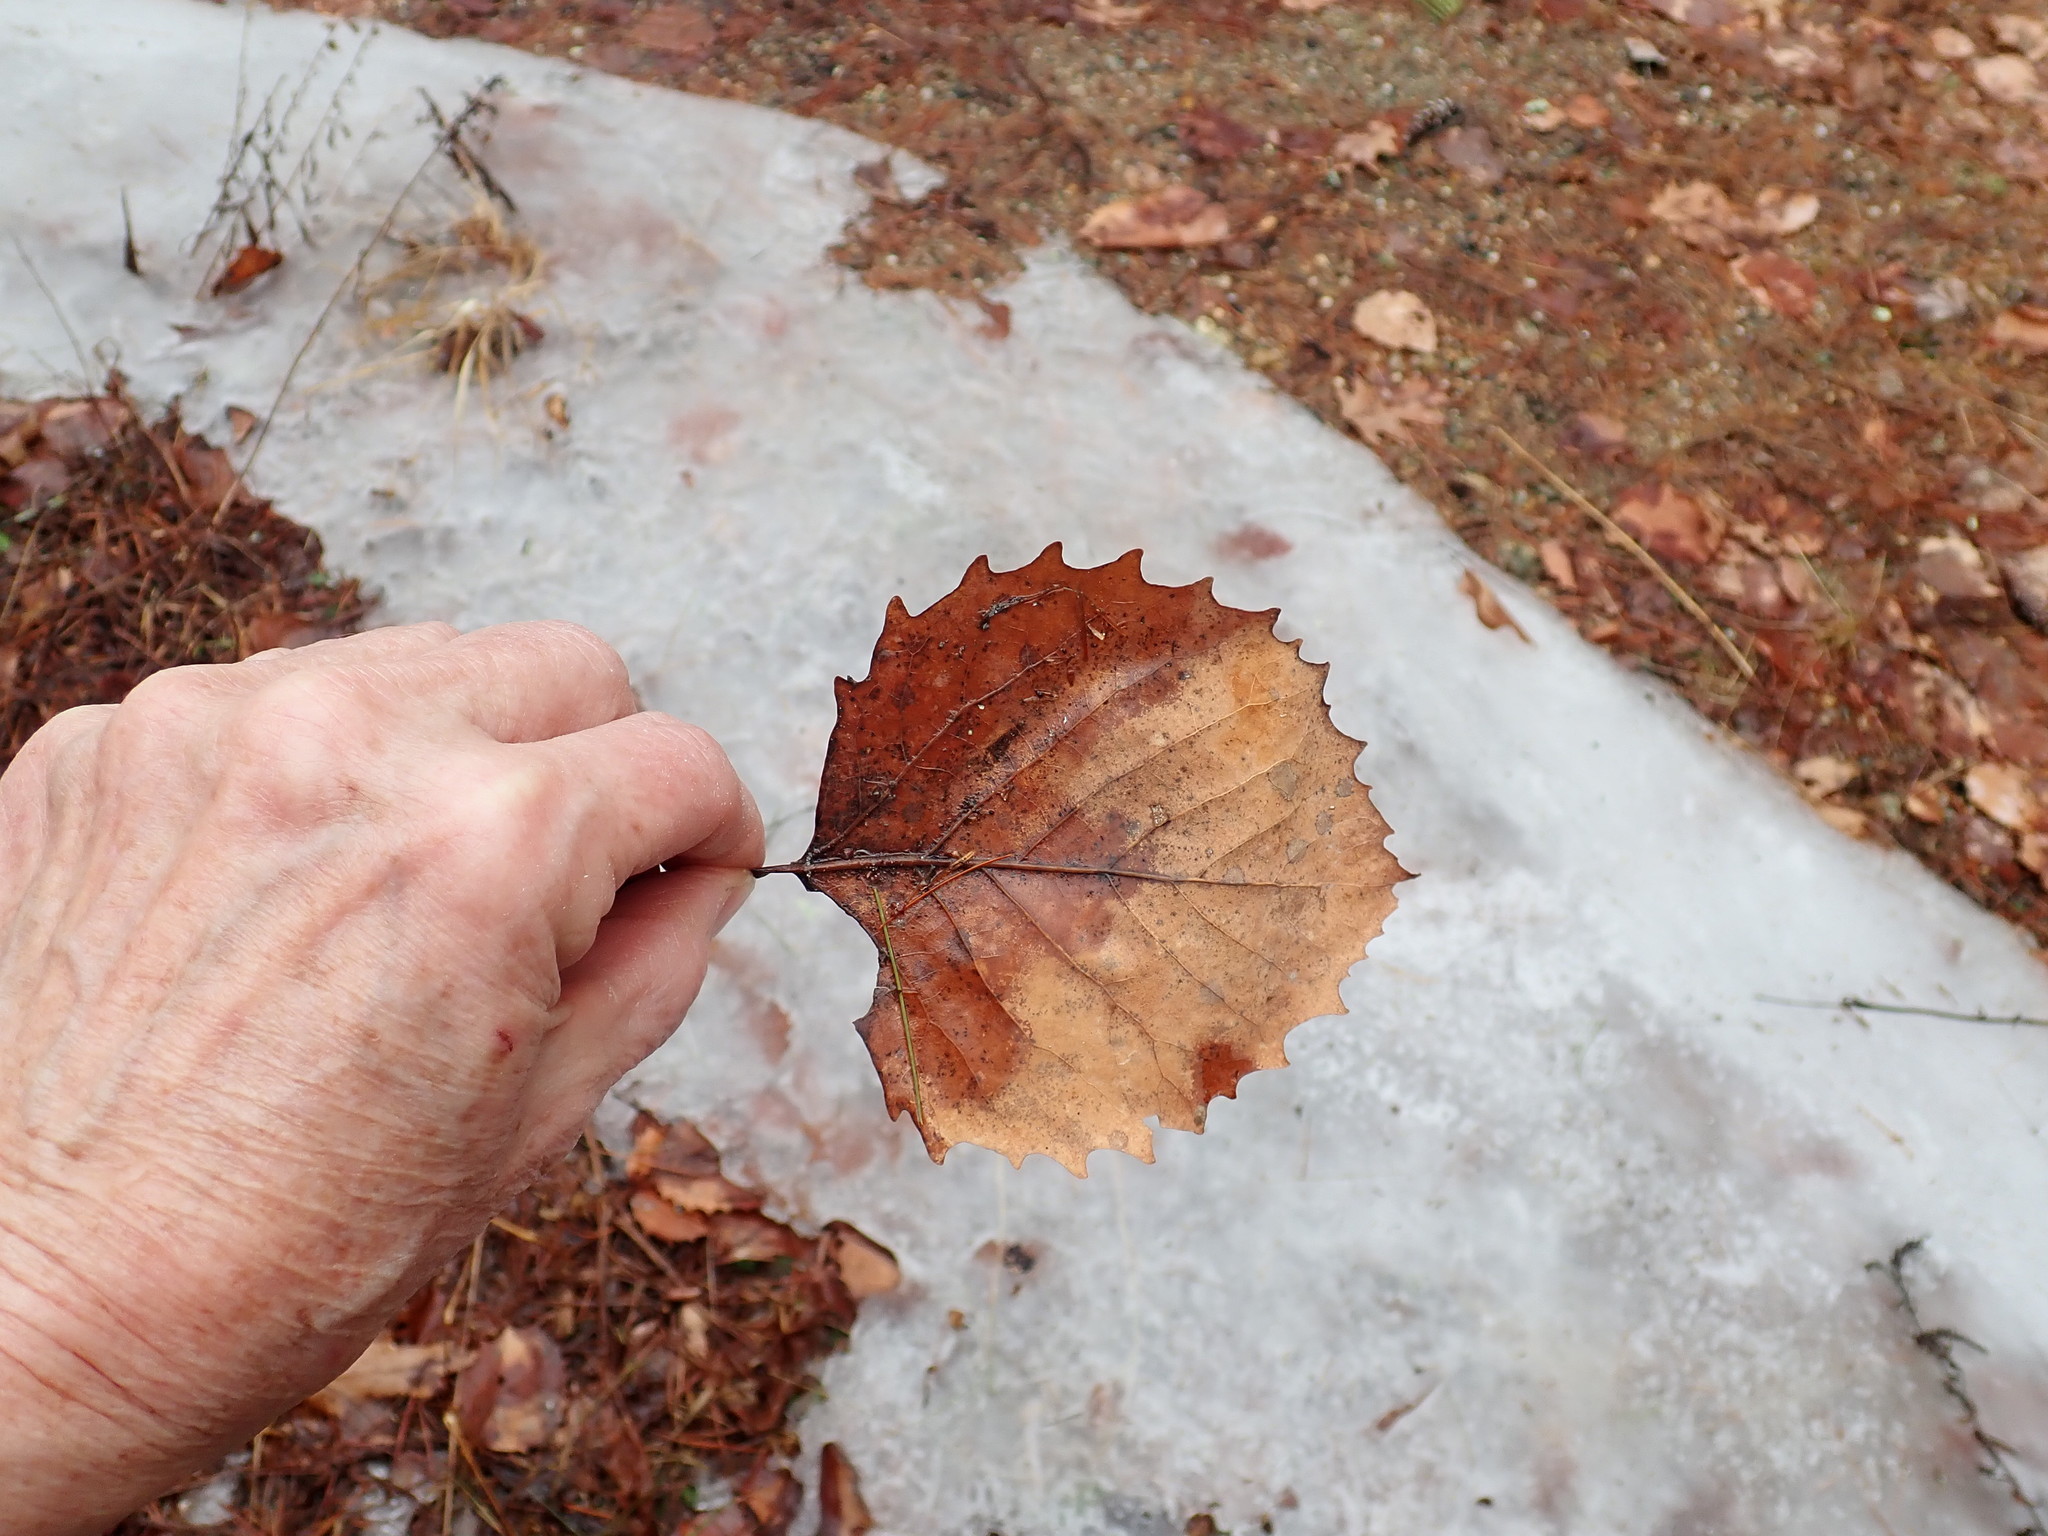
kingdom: Plantae
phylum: Tracheophyta
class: Magnoliopsida
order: Malpighiales
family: Salicaceae
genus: Populus
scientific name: Populus grandidentata
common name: Bigtooth aspen
